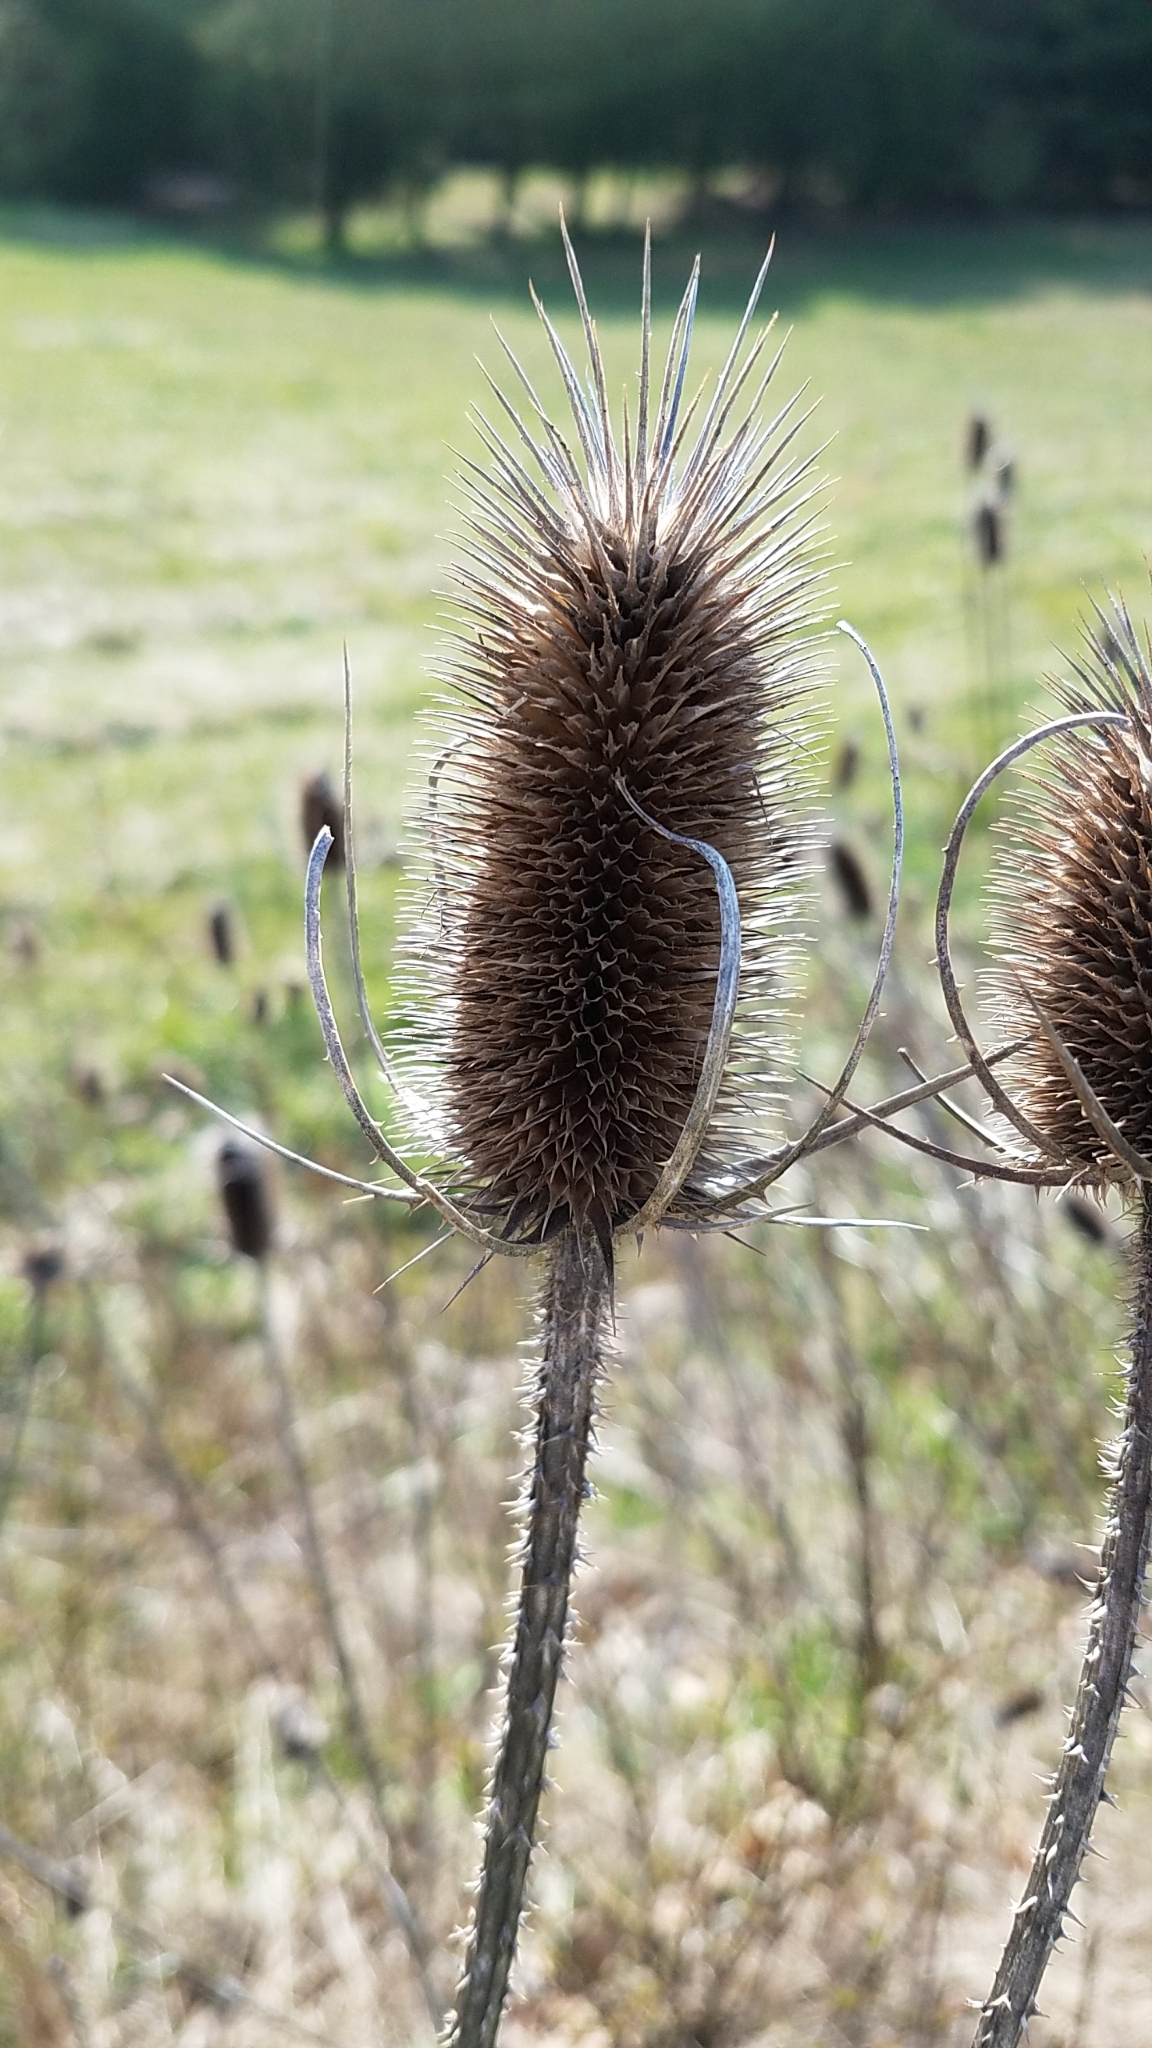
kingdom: Plantae
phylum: Tracheophyta
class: Magnoliopsida
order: Dipsacales
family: Caprifoliaceae
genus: Dipsacus
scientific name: Dipsacus fullonum
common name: Teasel
